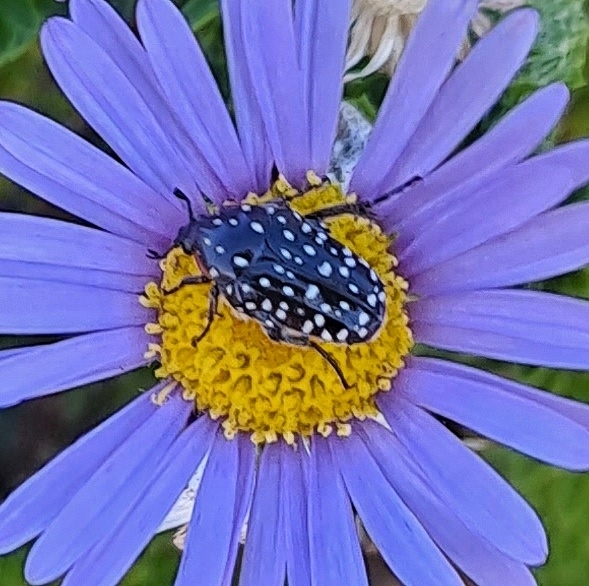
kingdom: Animalia
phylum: Arthropoda
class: Insecta
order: Coleoptera
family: Scarabaeidae
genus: Oxythyrea
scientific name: Oxythyrea
